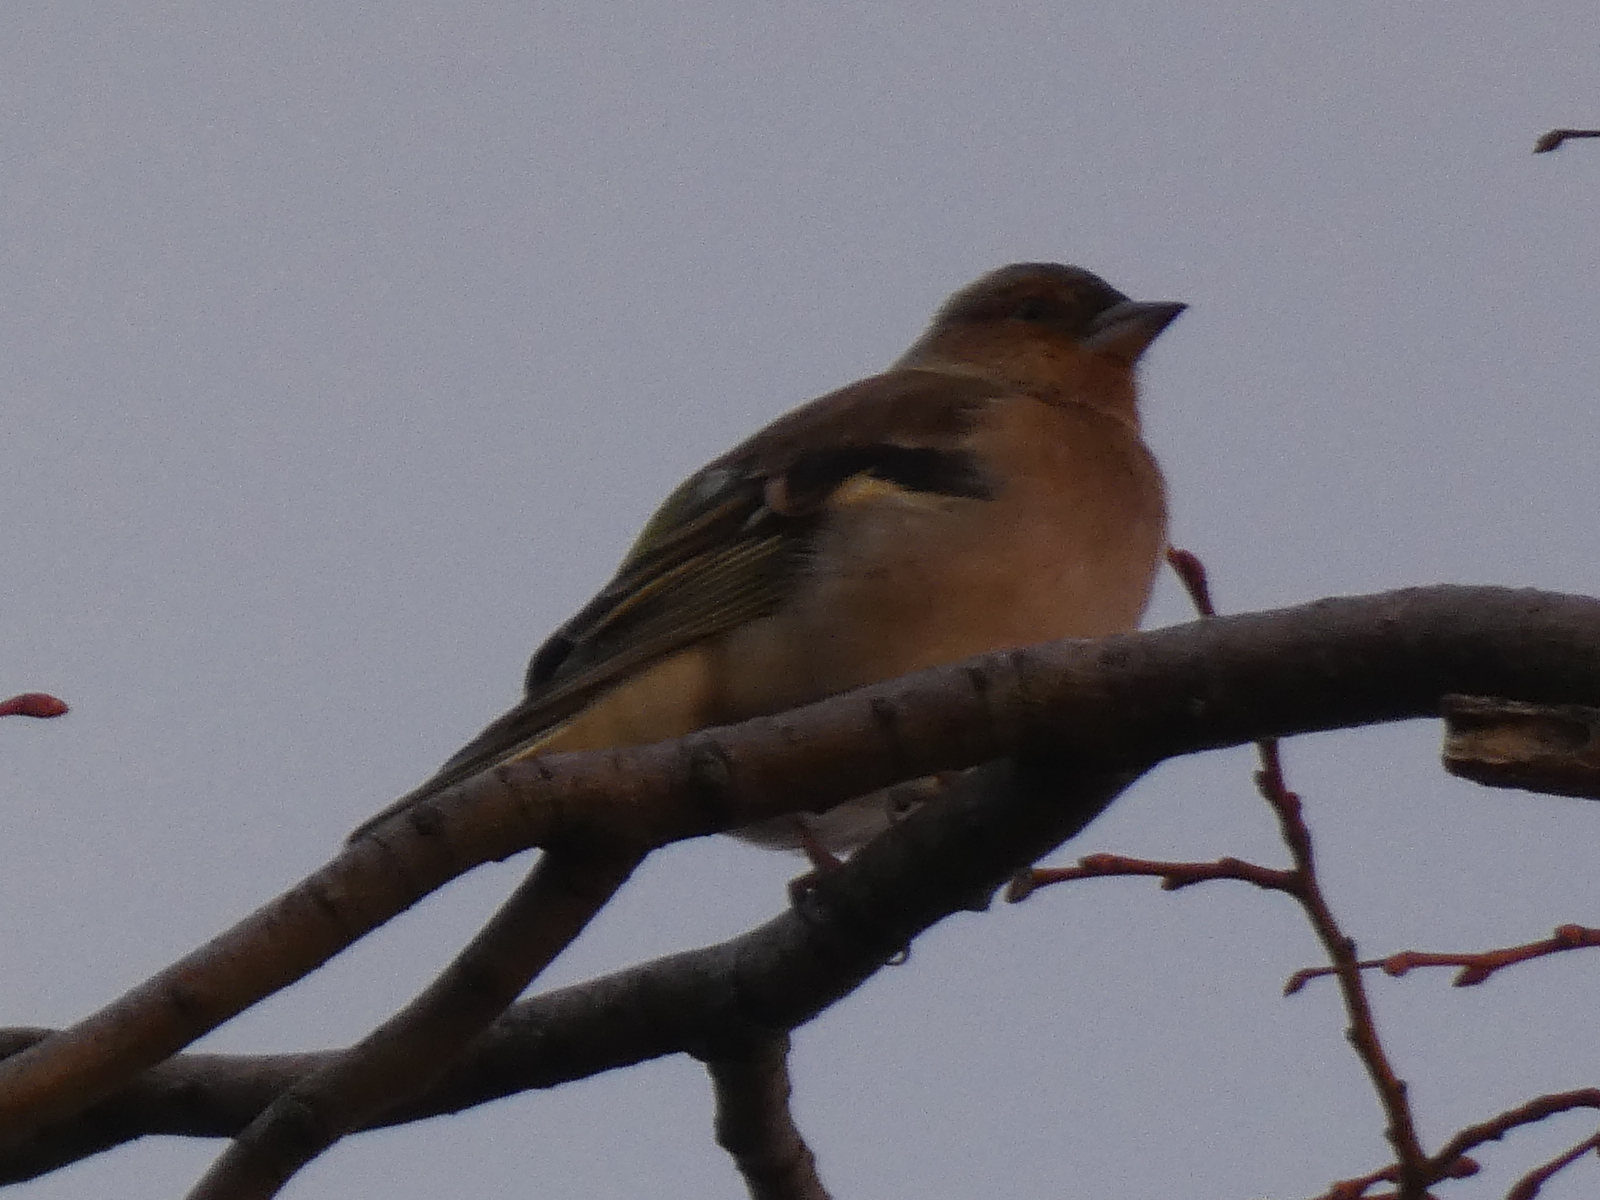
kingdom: Animalia
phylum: Chordata
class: Aves
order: Passeriformes
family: Fringillidae
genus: Fringilla
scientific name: Fringilla coelebs
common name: Common chaffinch
